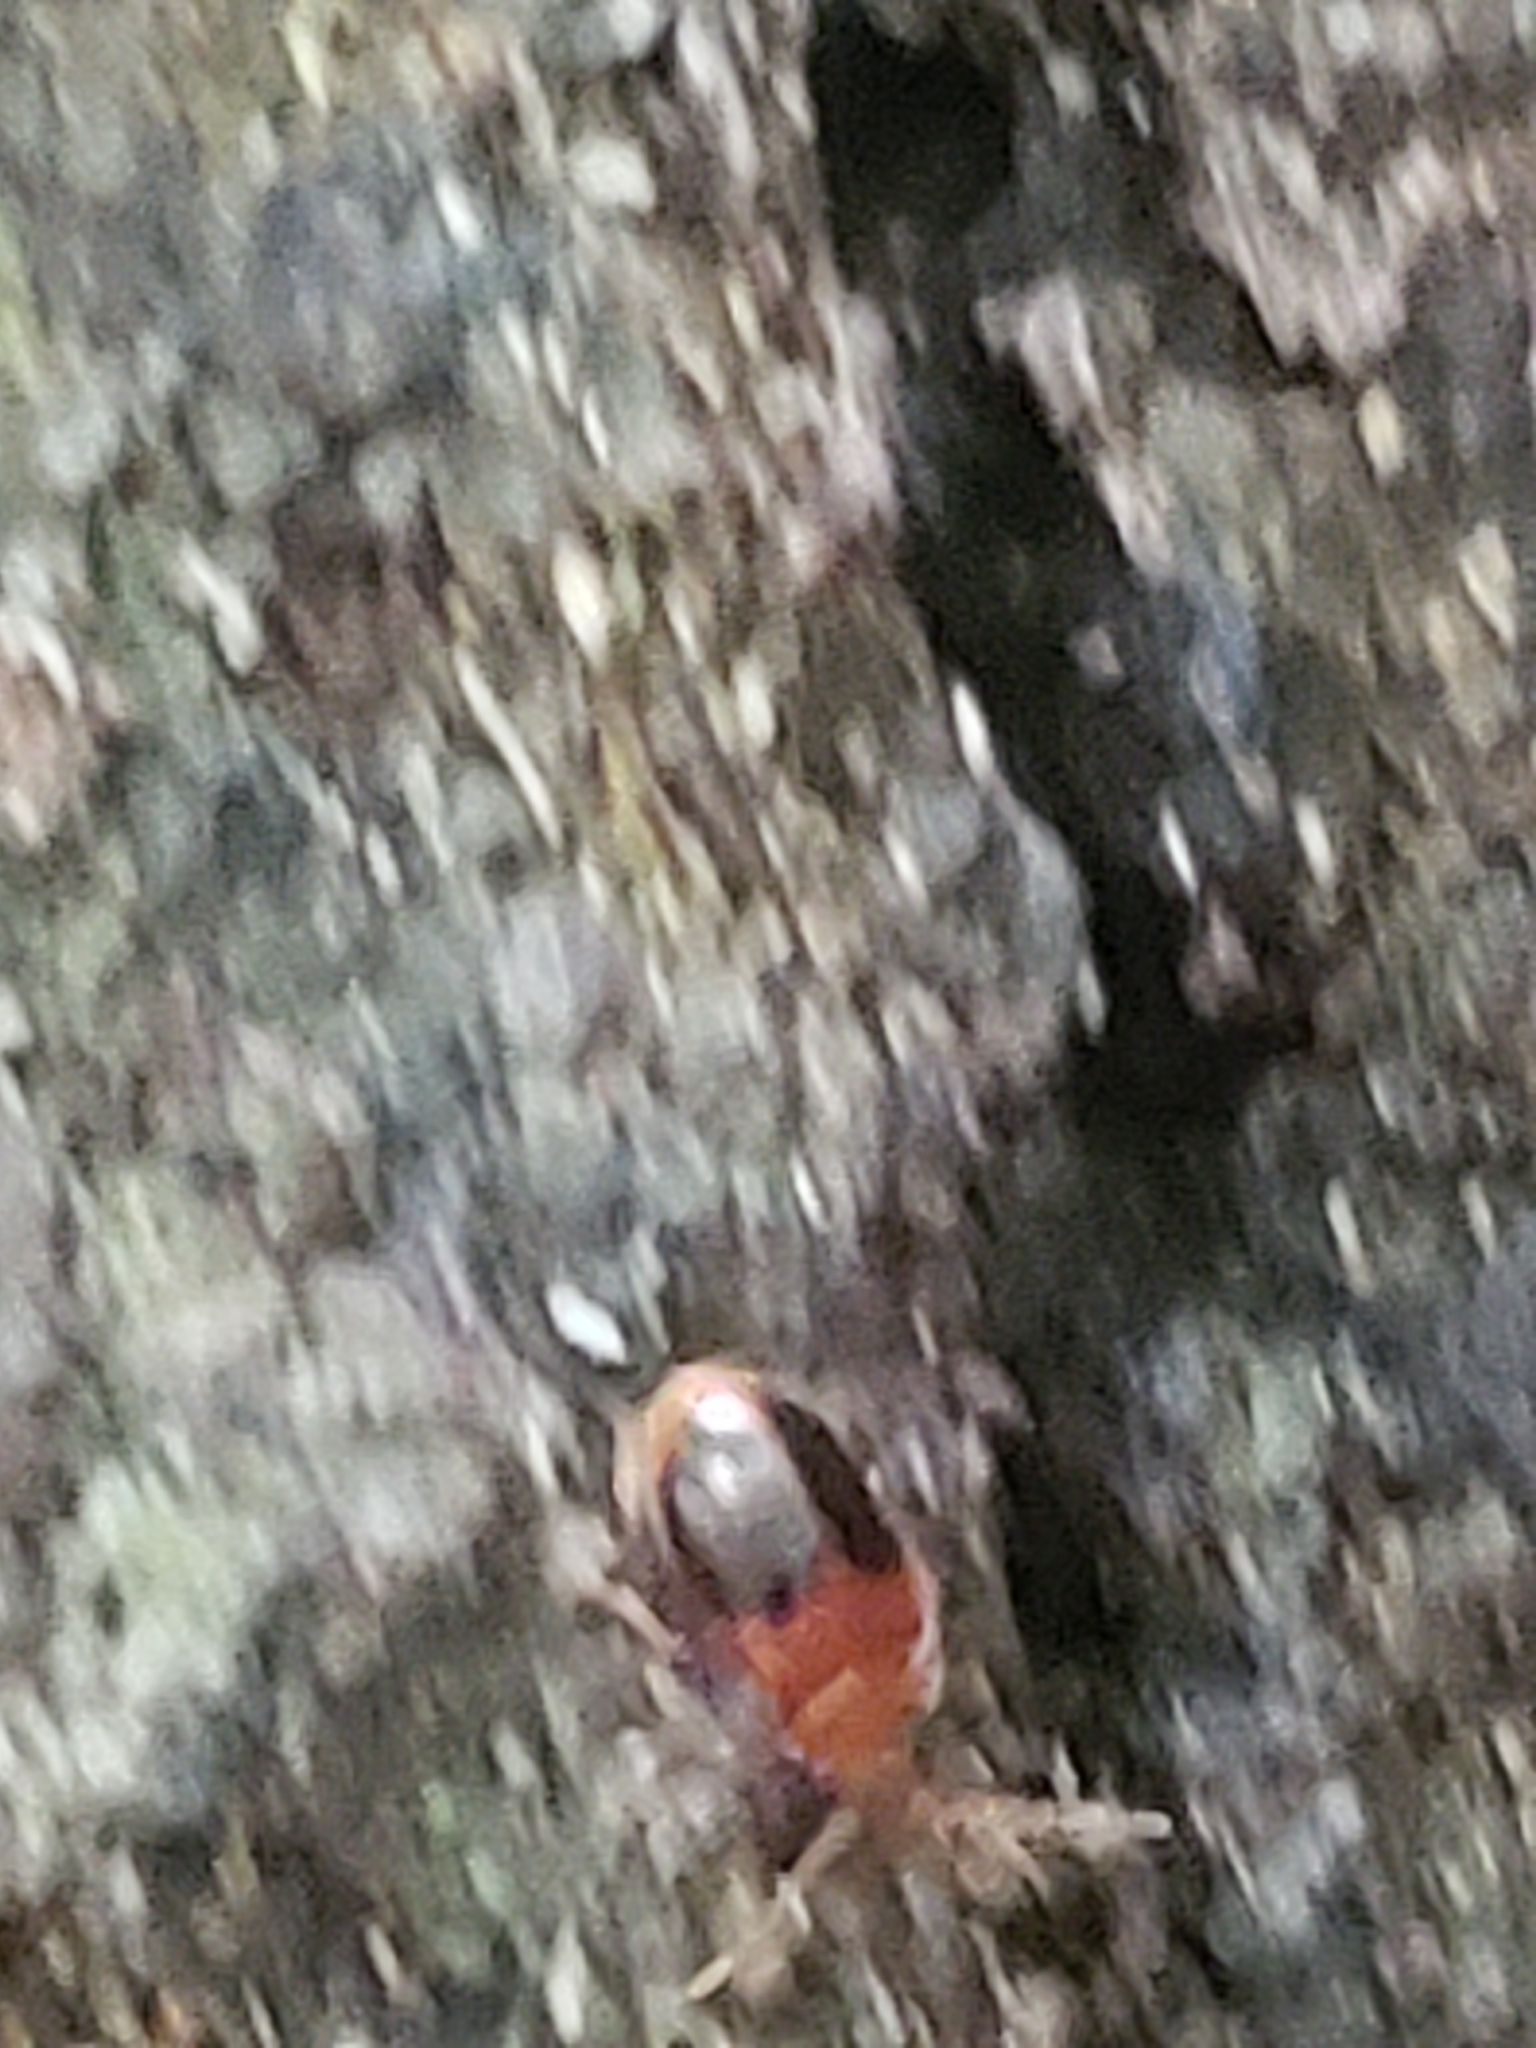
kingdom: Animalia
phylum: Arthropoda
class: Insecta
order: Coleoptera
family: Scirtidae
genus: Prionocyphon
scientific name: Prionocyphon discoideus
